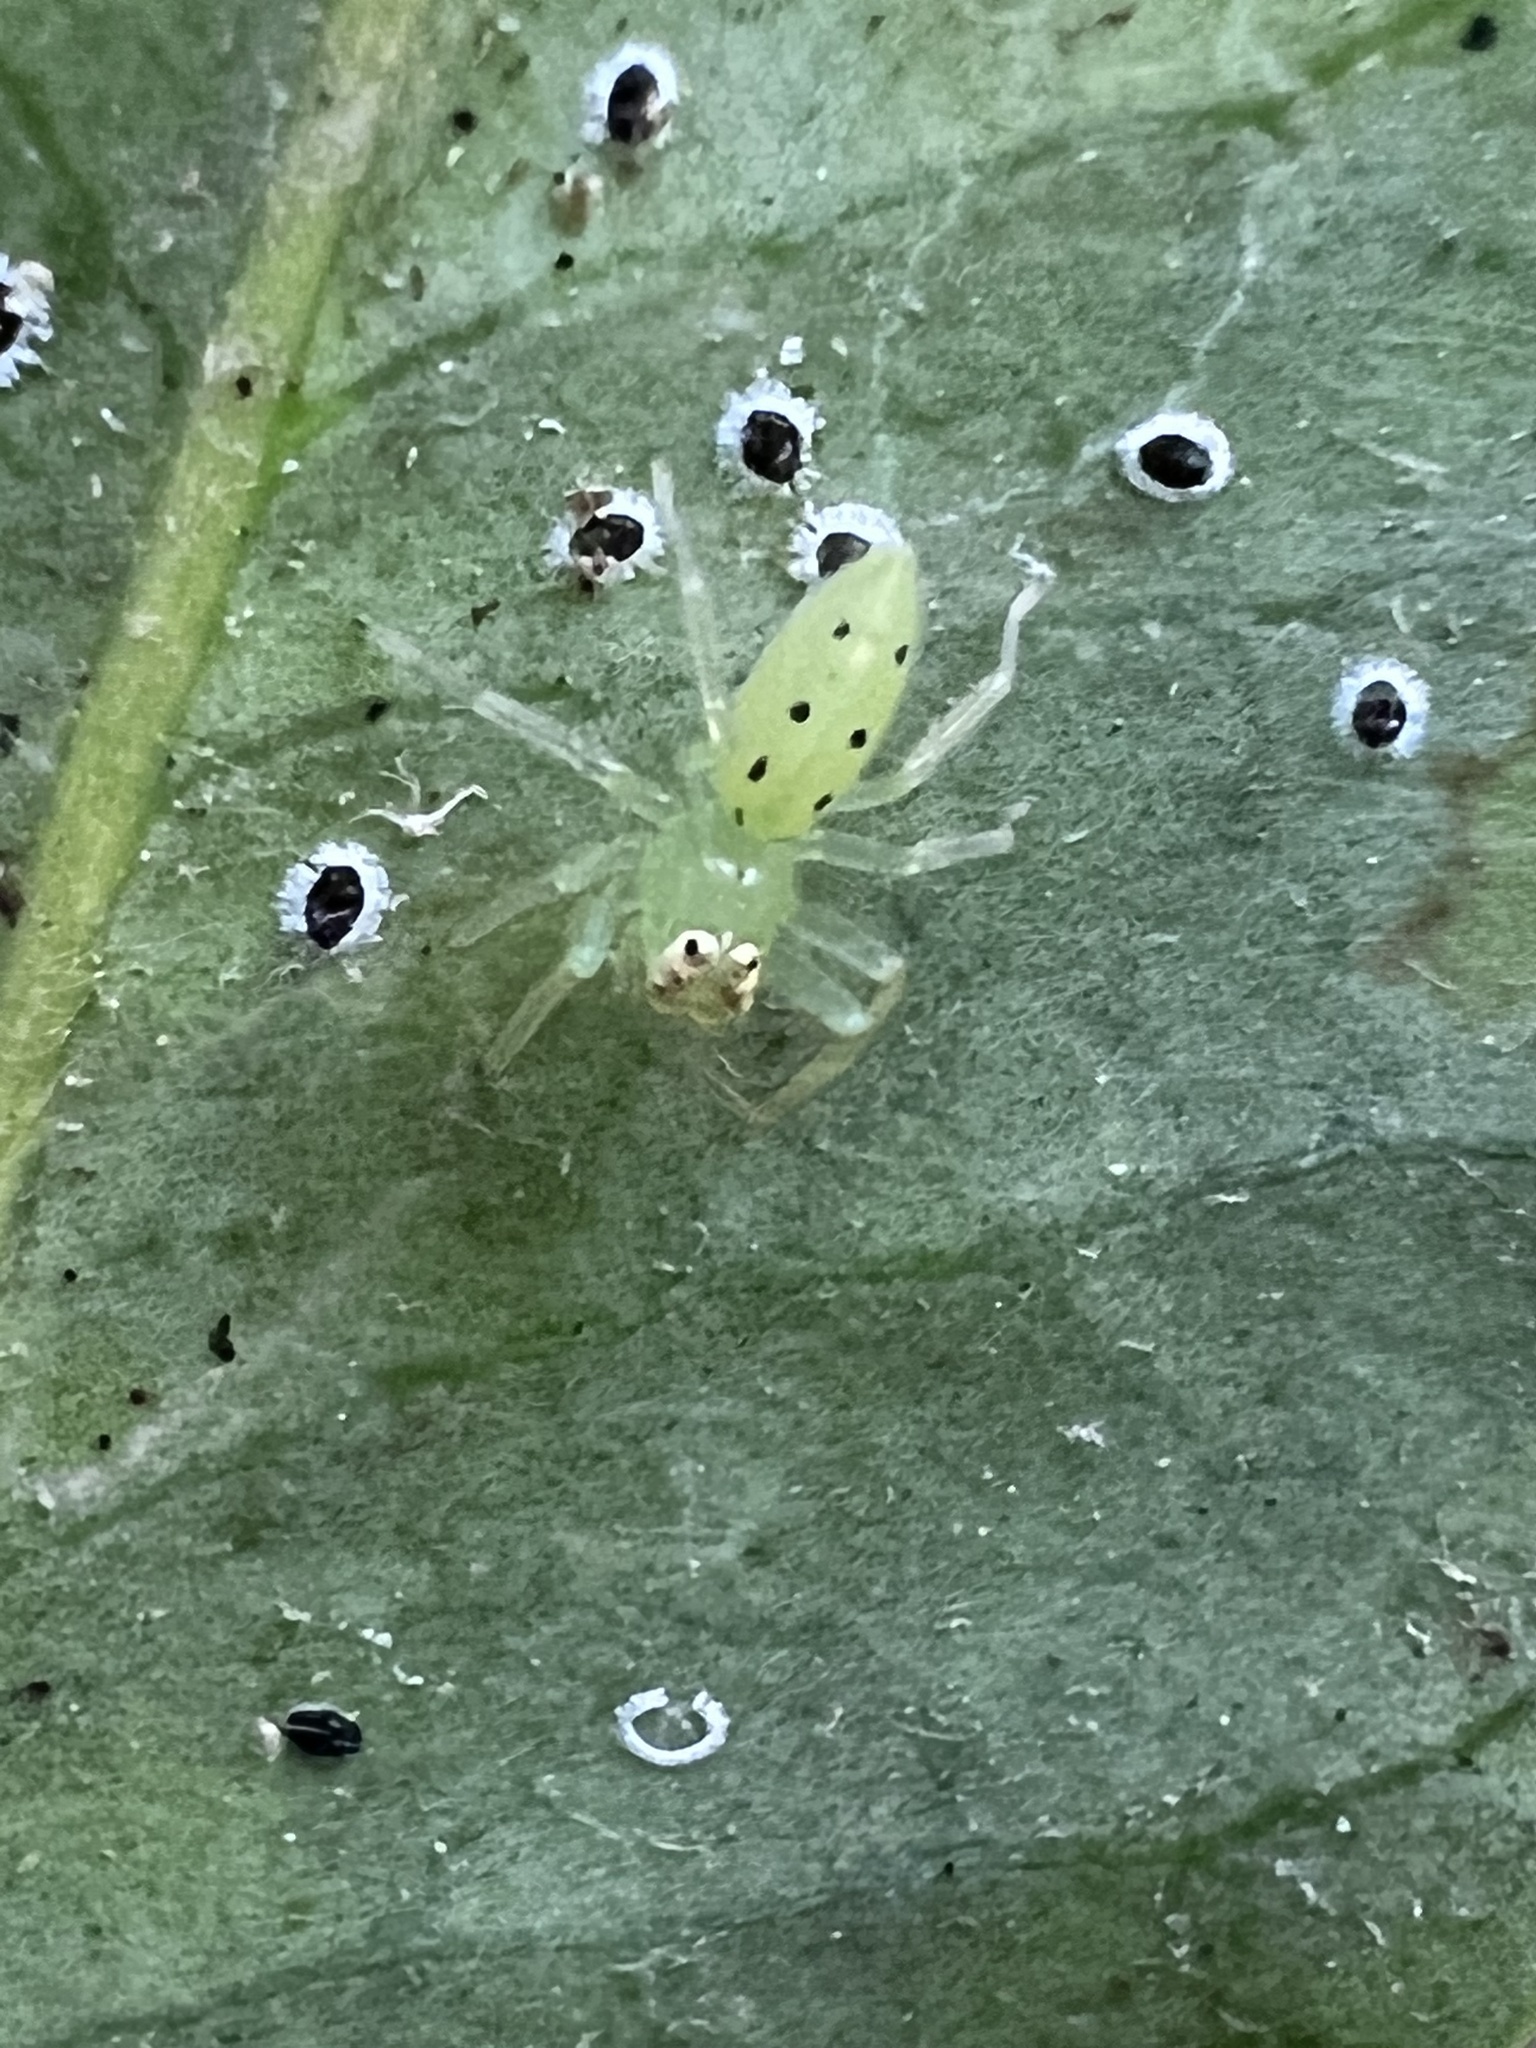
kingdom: Animalia
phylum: Arthropoda
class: Arachnida
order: Araneae
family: Salticidae
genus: Lyssomanes
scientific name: Lyssomanes viridis
